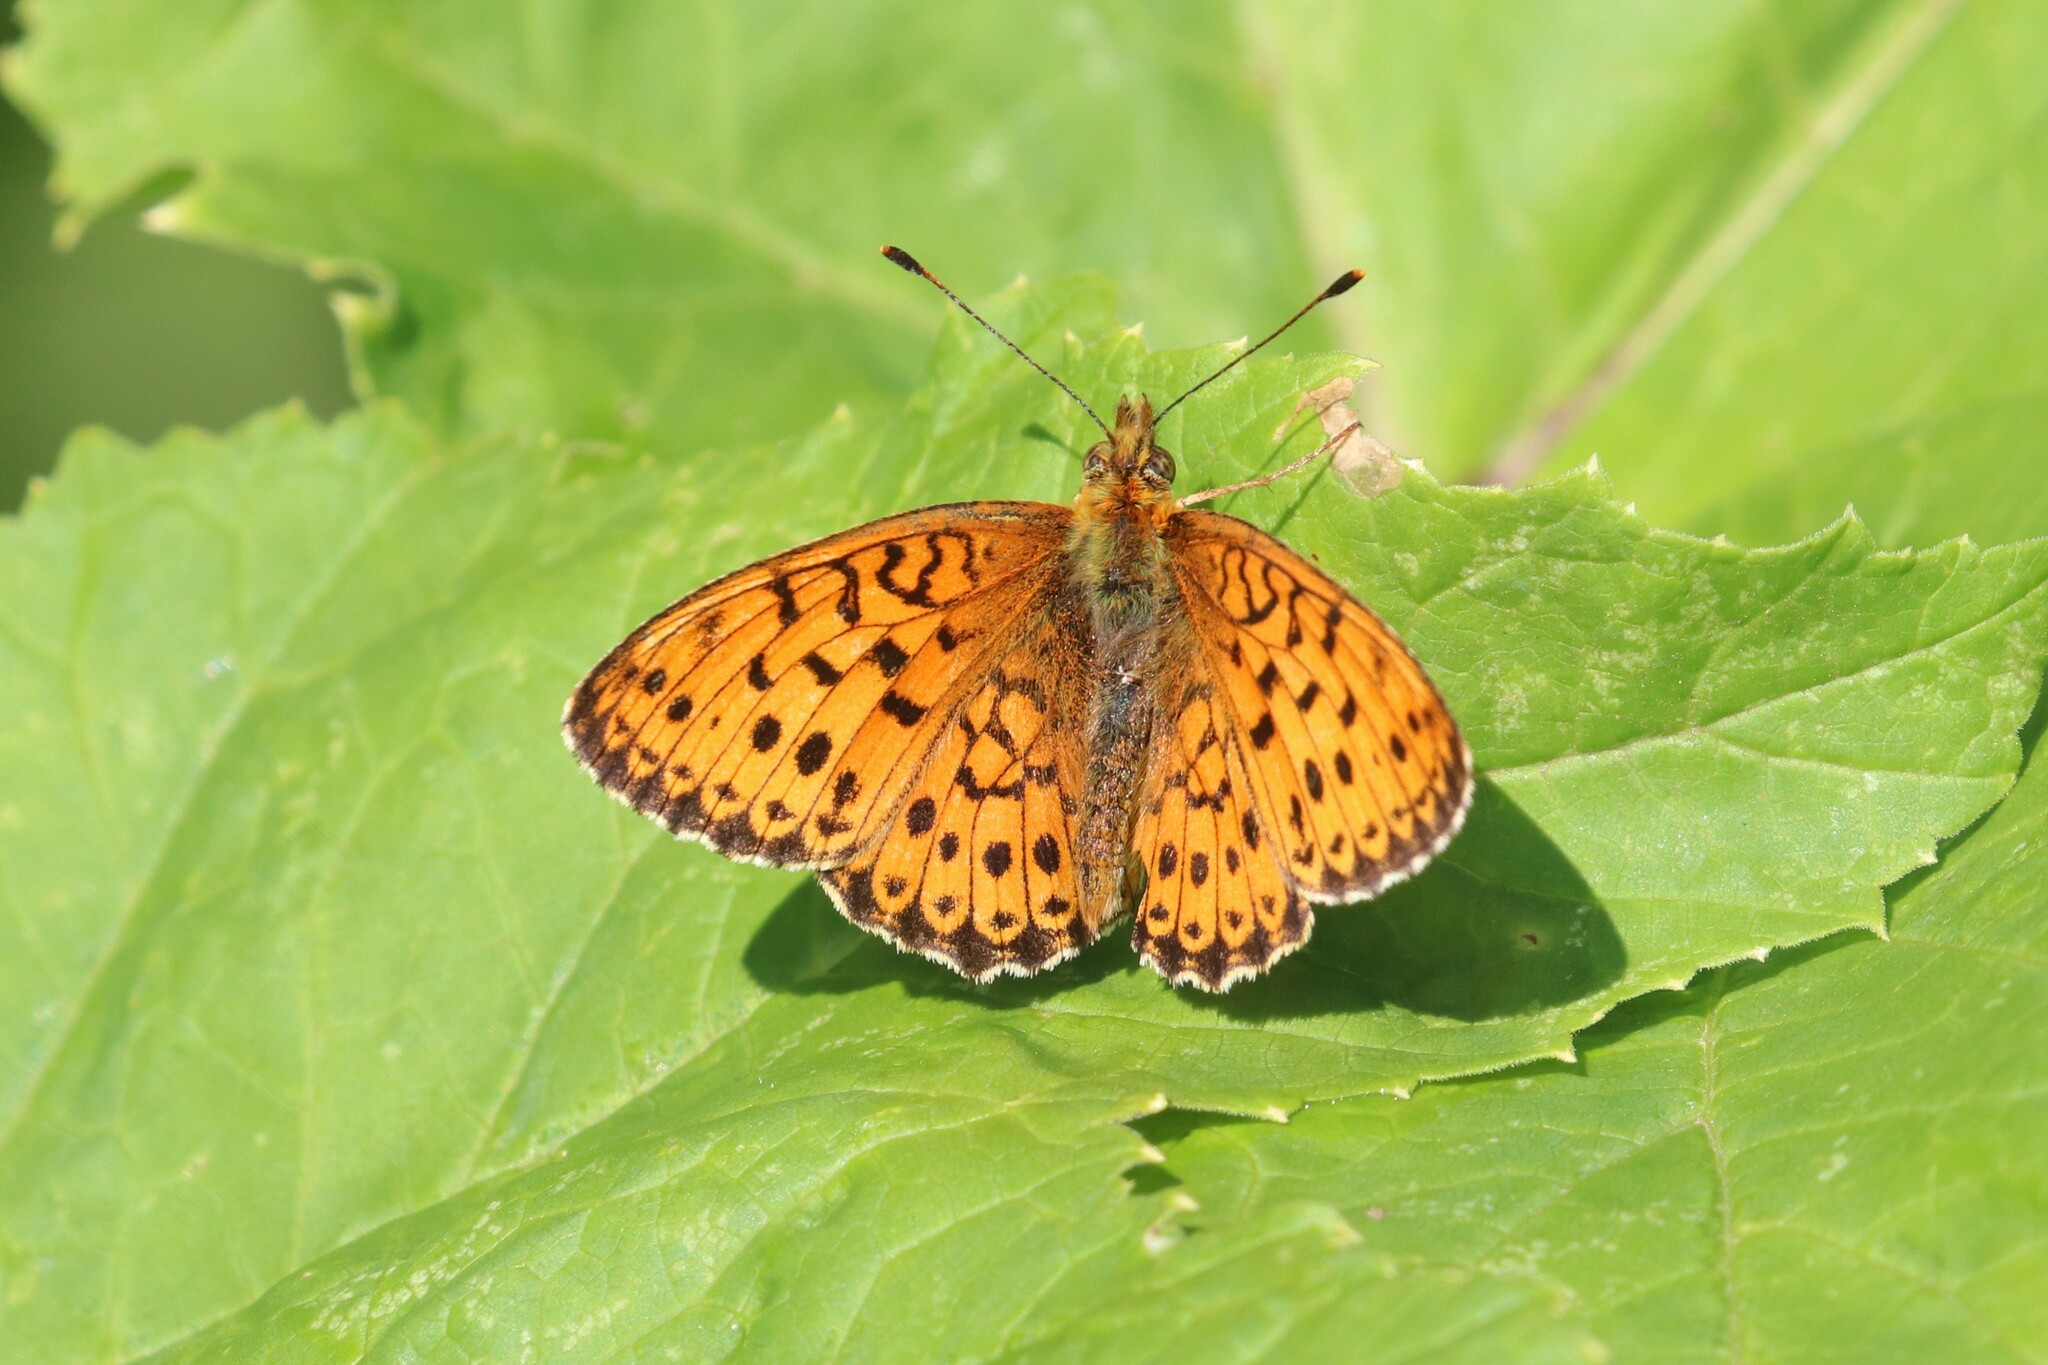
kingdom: Animalia
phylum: Arthropoda
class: Insecta
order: Lepidoptera
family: Nymphalidae
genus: Brenthis
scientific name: Brenthis ino
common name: Lesser marbled fritillary
